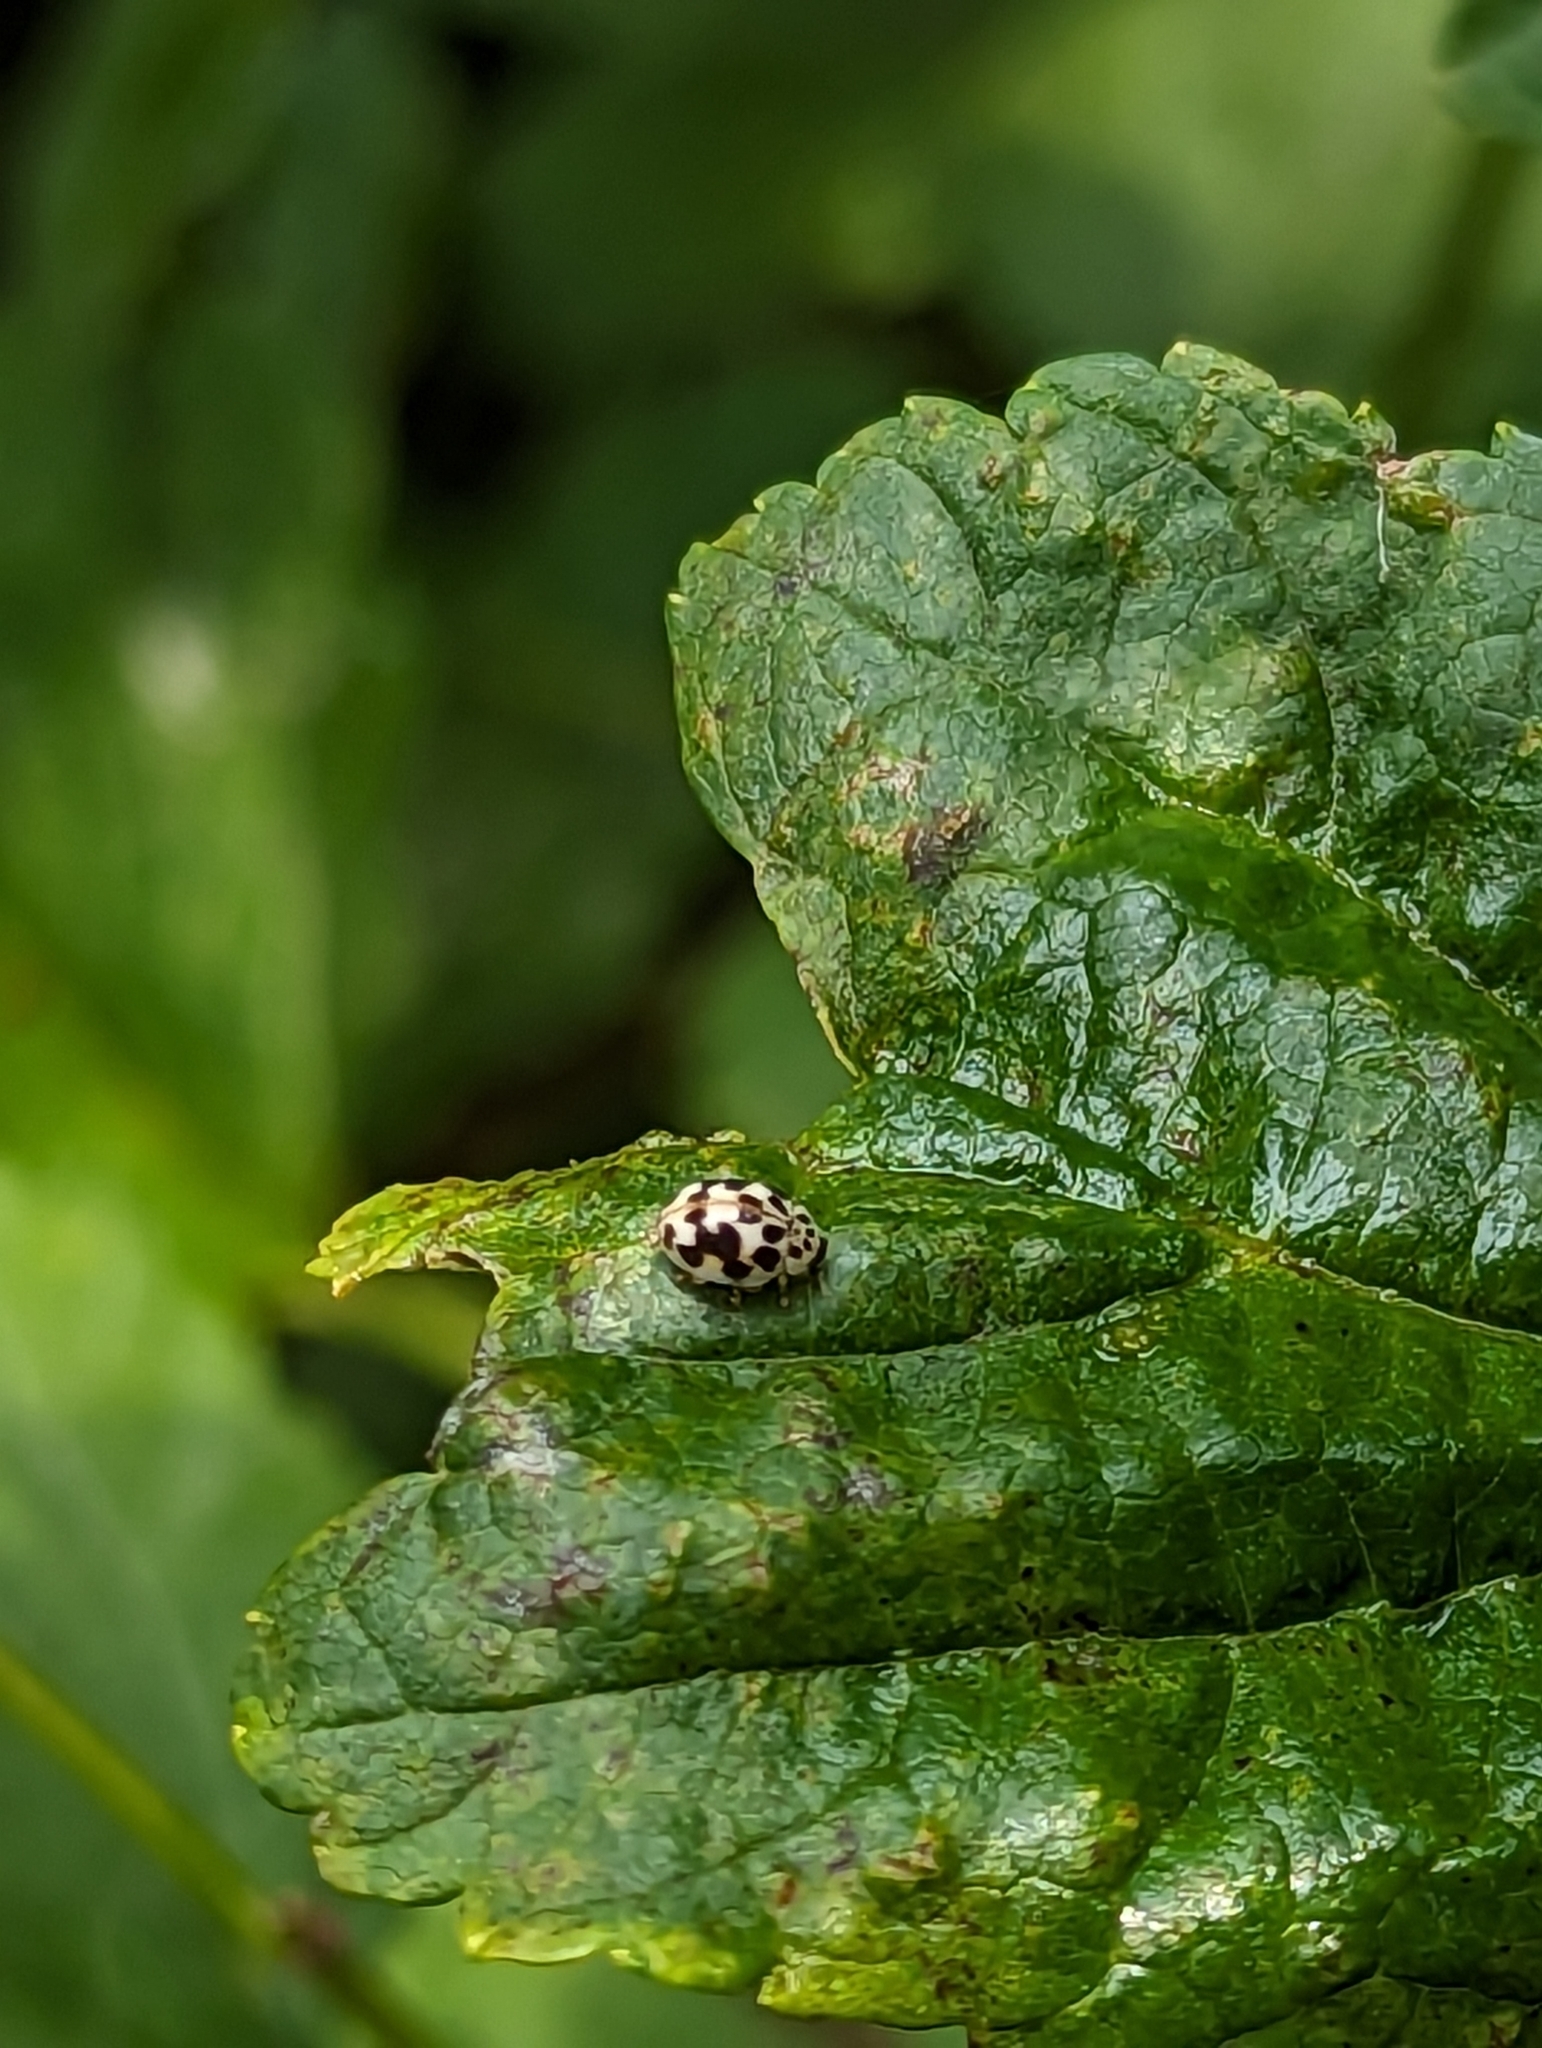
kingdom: Animalia
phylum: Arthropoda
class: Insecta
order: Coleoptera
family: Coccinellidae
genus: Psyllobora
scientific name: Psyllobora vigintimaculata
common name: Ladybird beetle
